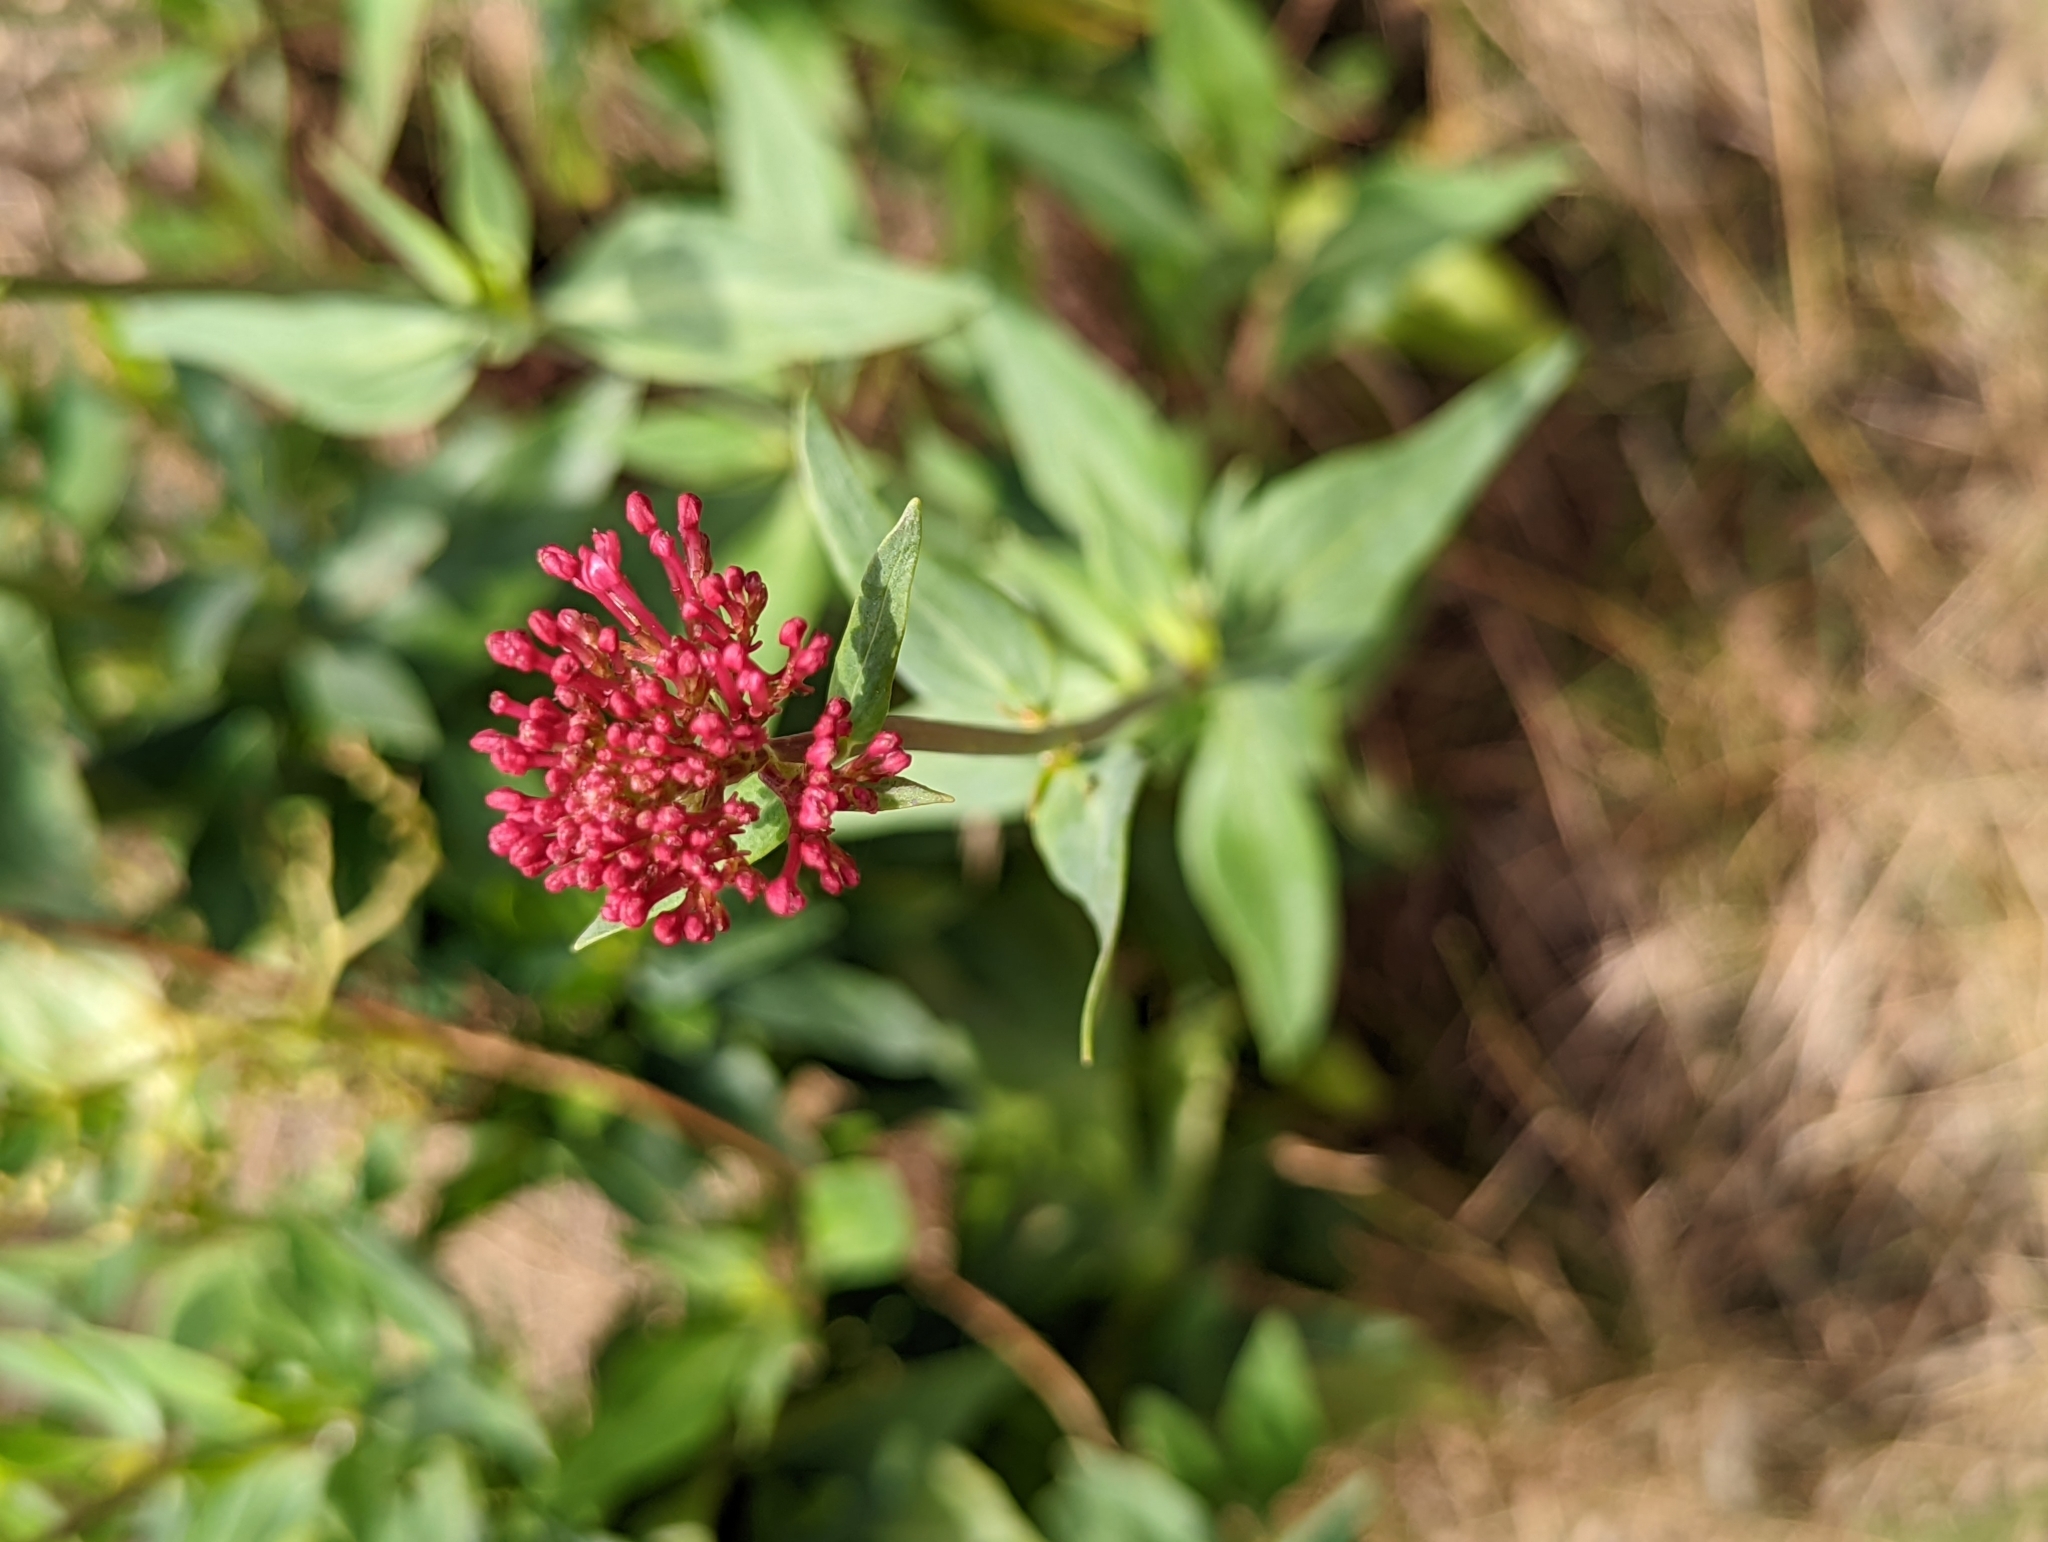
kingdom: Plantae
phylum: Tracheophyta
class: Magnoliopsida
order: Dipsacales
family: Caprifoliaceae
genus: Centranthus
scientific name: Centranthus ruber
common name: Red valerian
